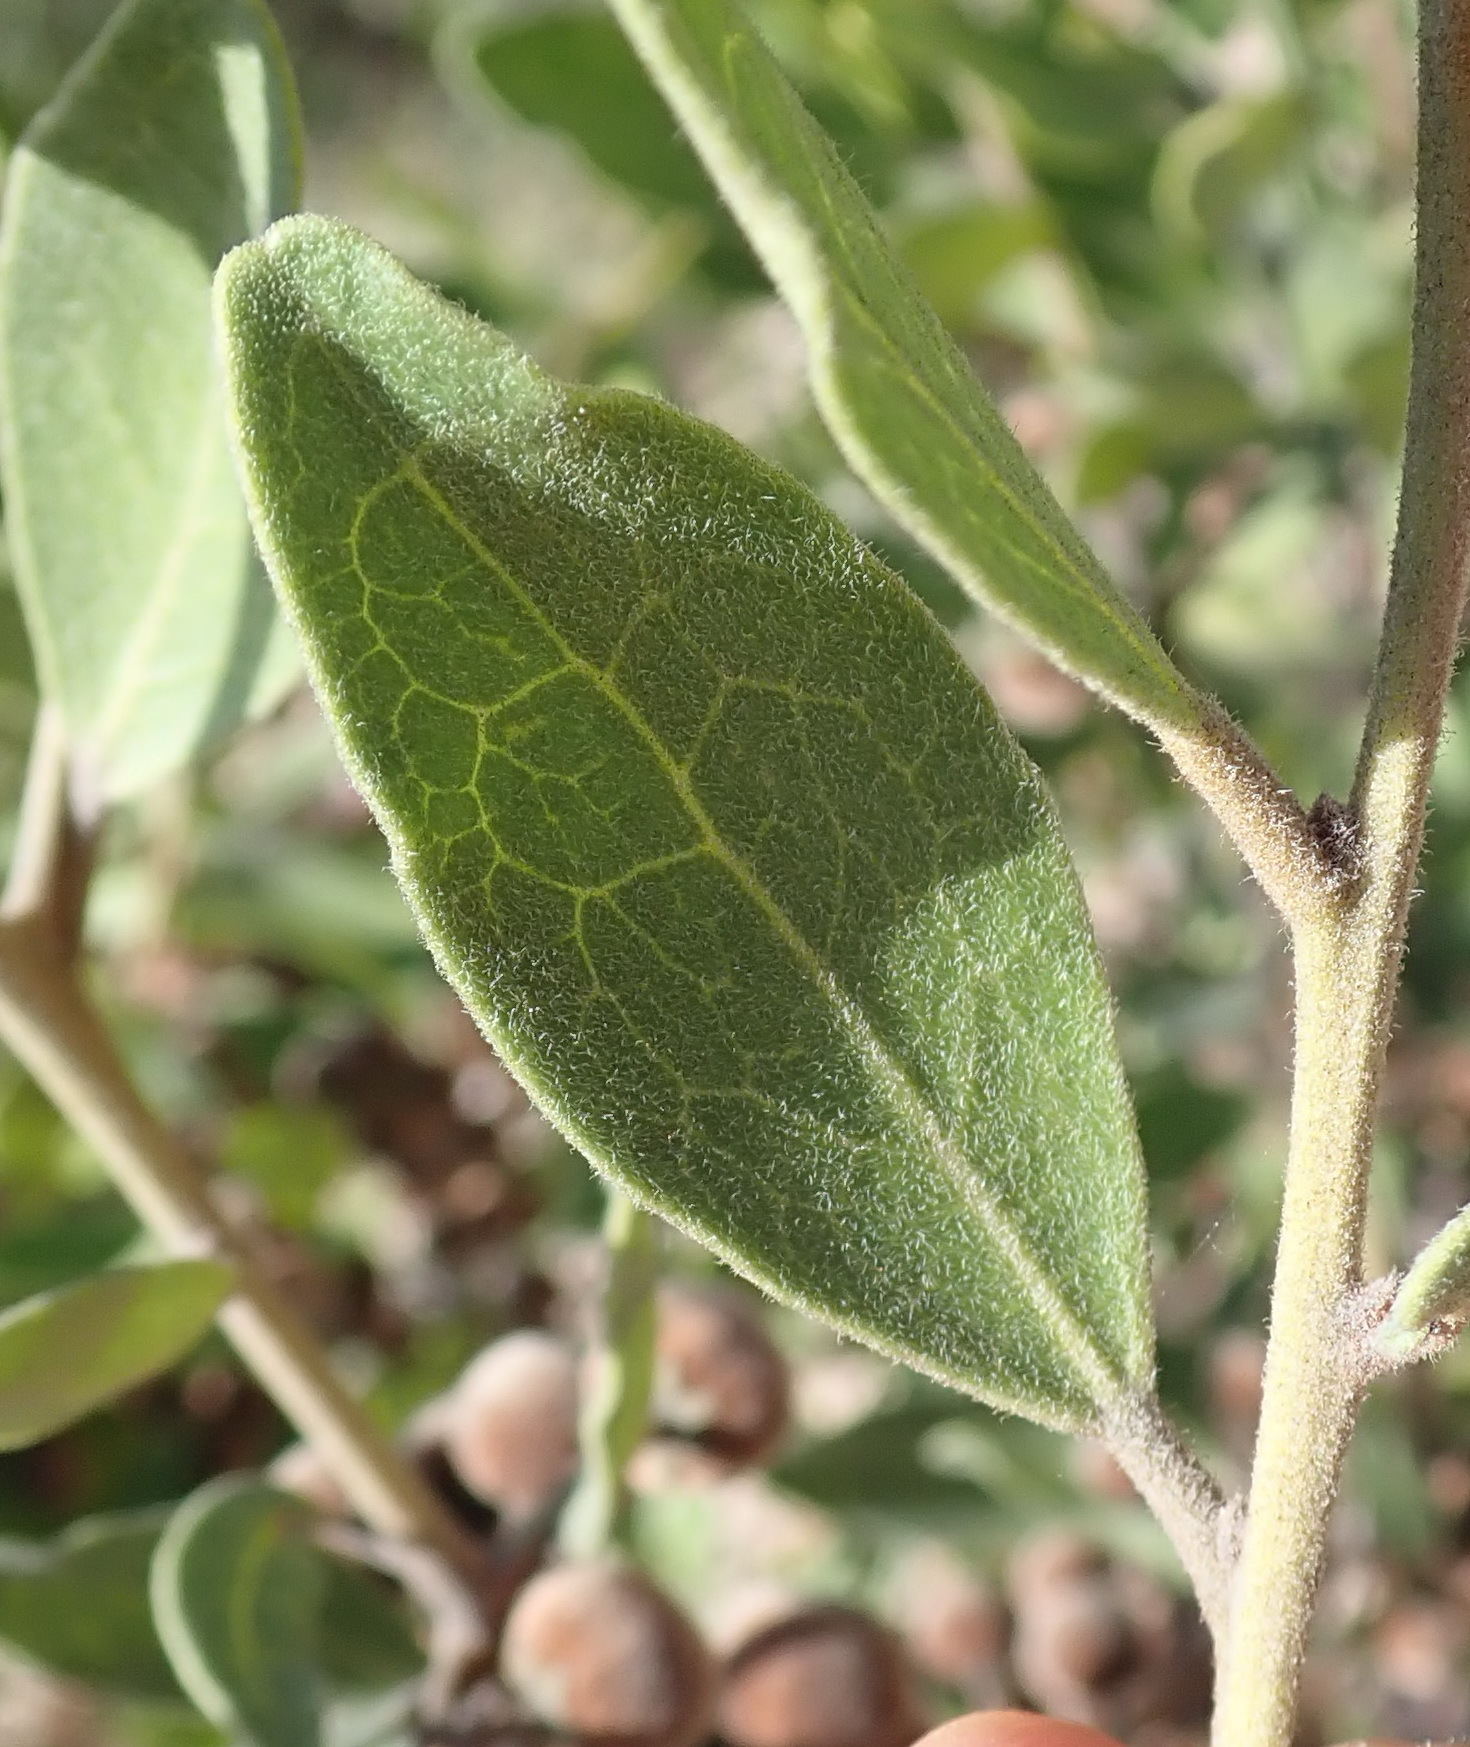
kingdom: Plantae
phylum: Tracheophyta
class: Magnoliopsida
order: Ericales
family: Ebenaceae
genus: Euclea
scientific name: Euclea polyandra
